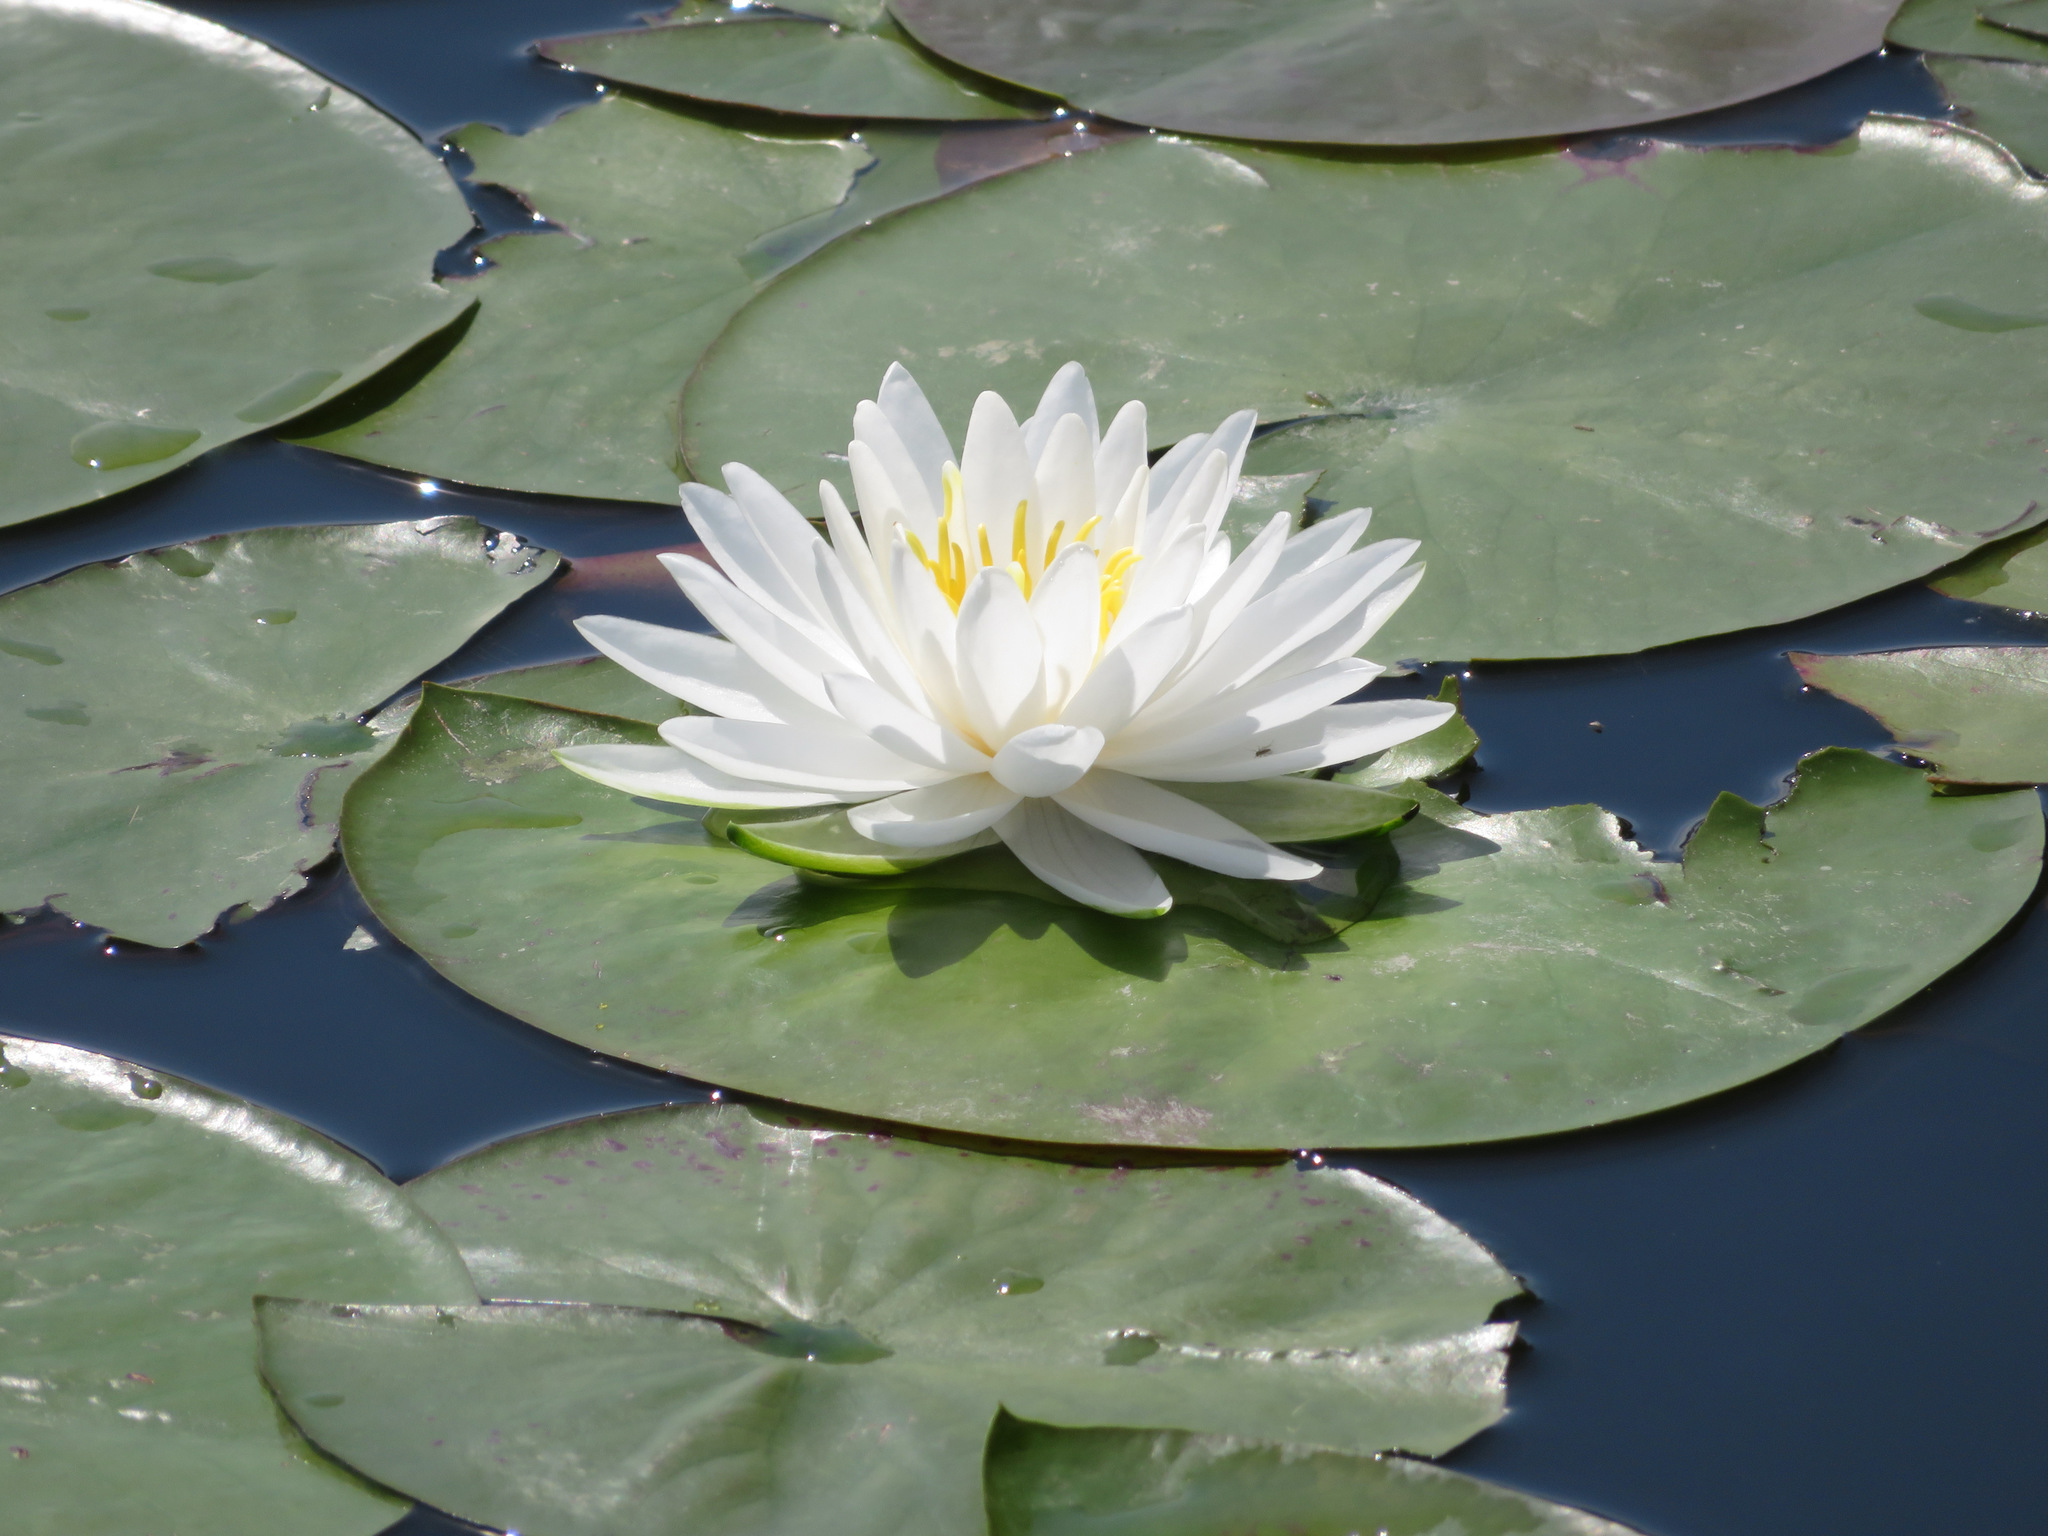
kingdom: Plantae
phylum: Tracheophyta
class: Magnoliopsida
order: Nymphaeales
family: Nymphaeaceae
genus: Nymphaea
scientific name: Nymphaea alba
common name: White water-lily
